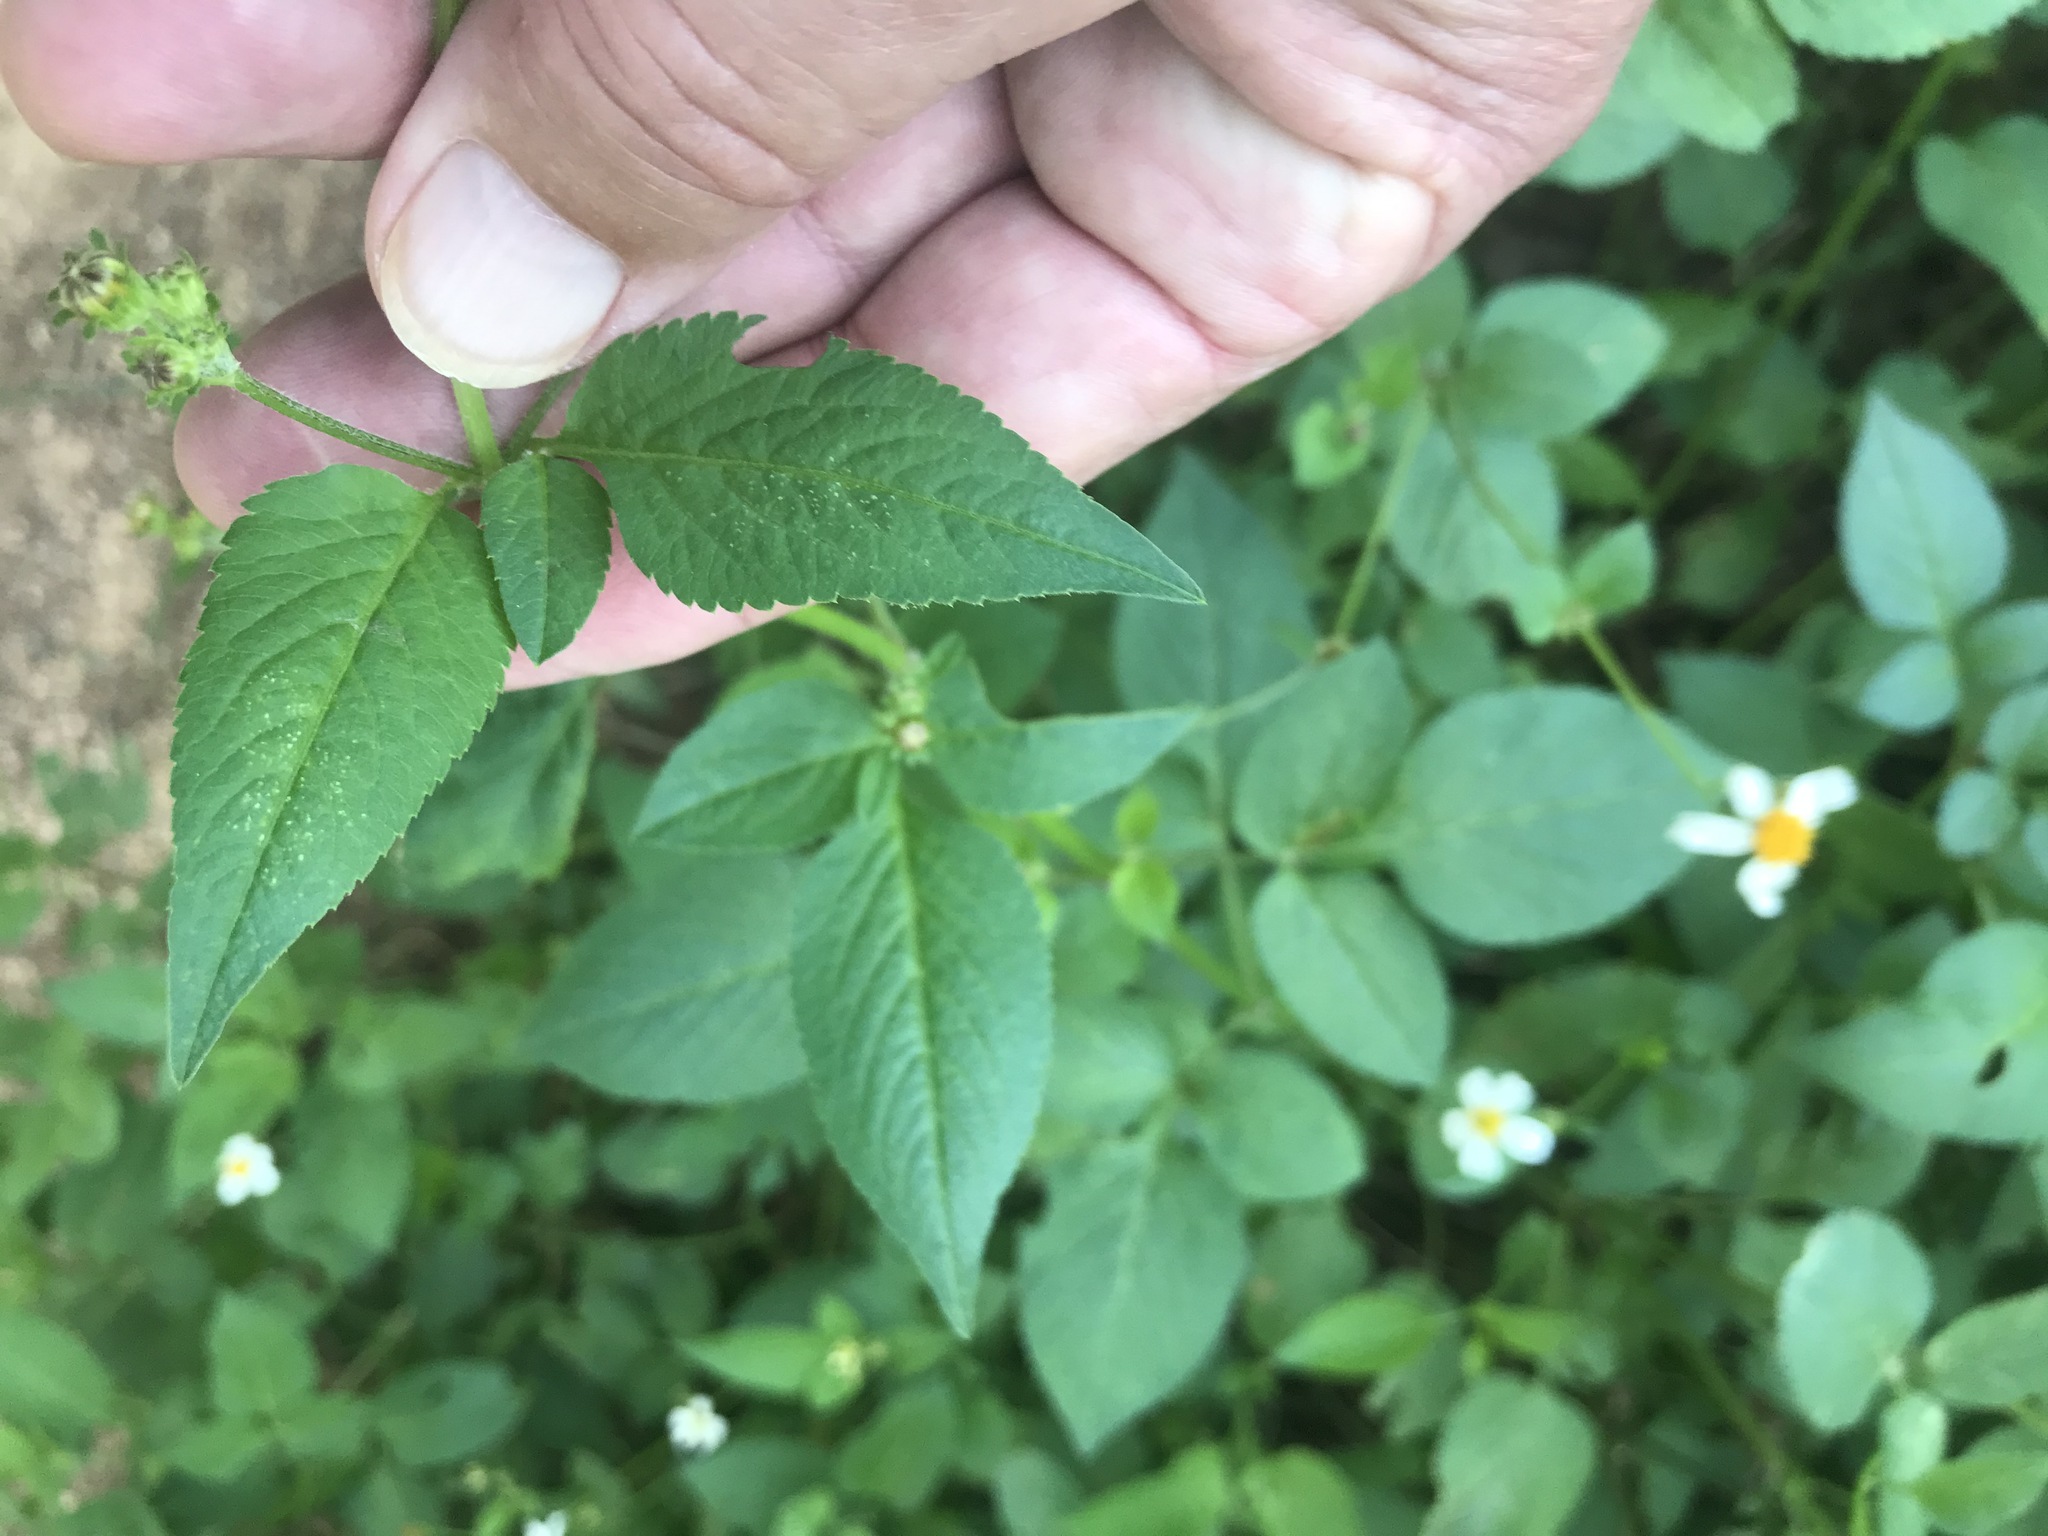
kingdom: Plantae
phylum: Tracheophyta
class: Magnoliopsida
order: Asterales
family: Asteraceae
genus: Bidens
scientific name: Bidens alba
